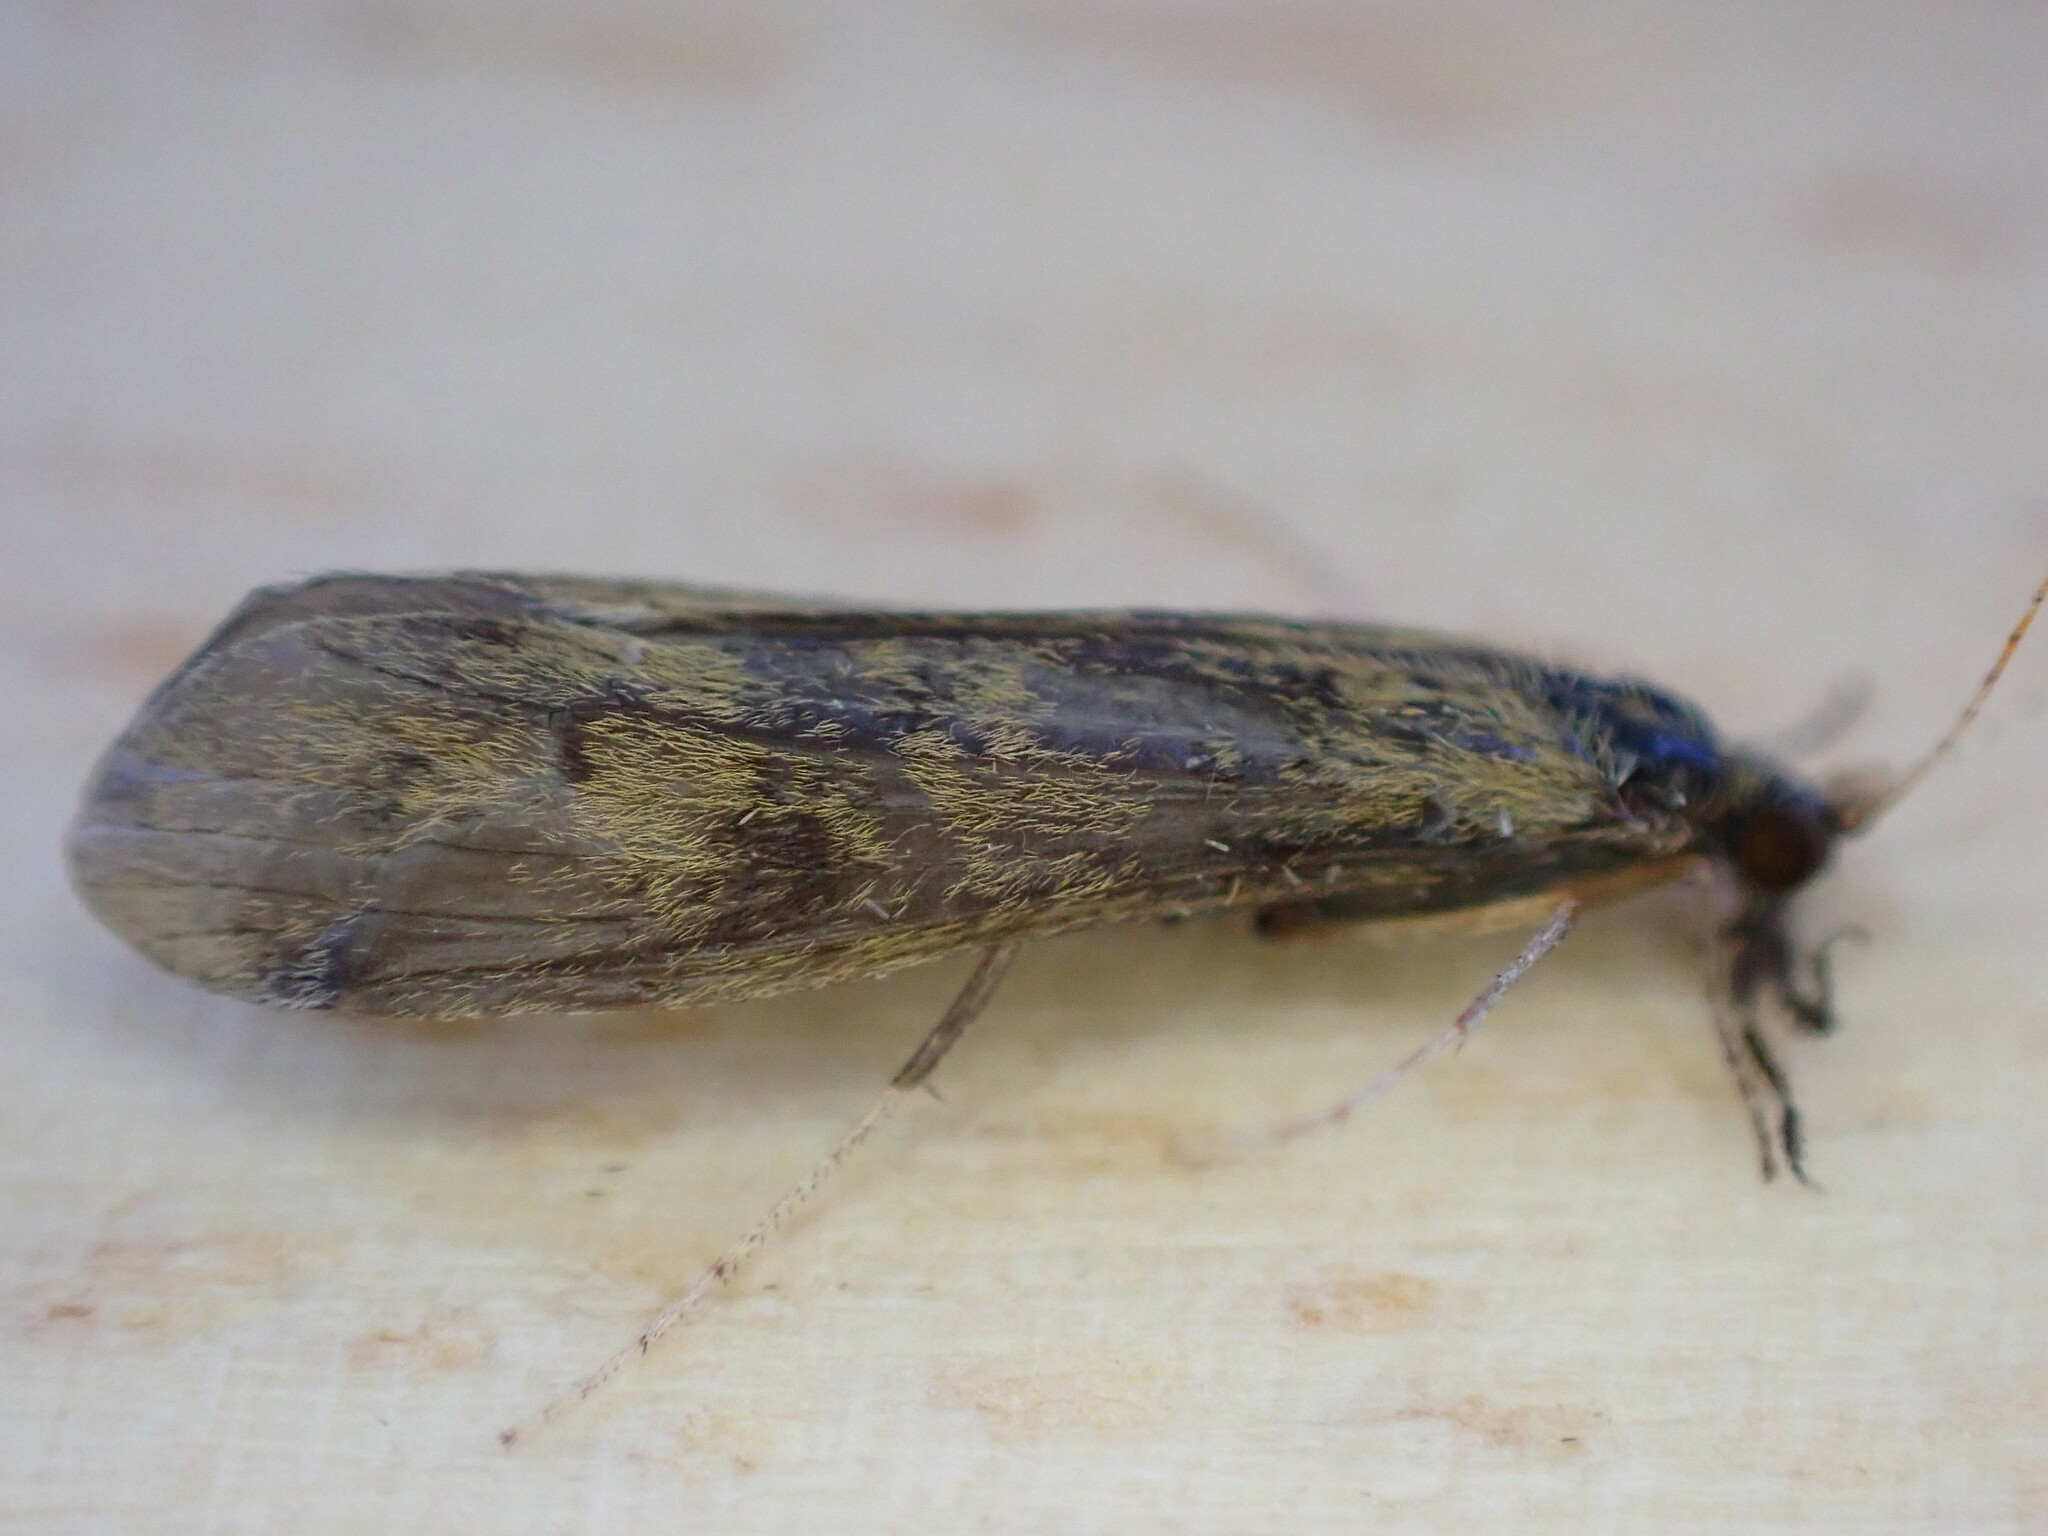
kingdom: Animalia
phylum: Arthropoda
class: Insecta
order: Trichoptera
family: Leptoceridae
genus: Mystacides
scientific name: Mystacides longicornis
